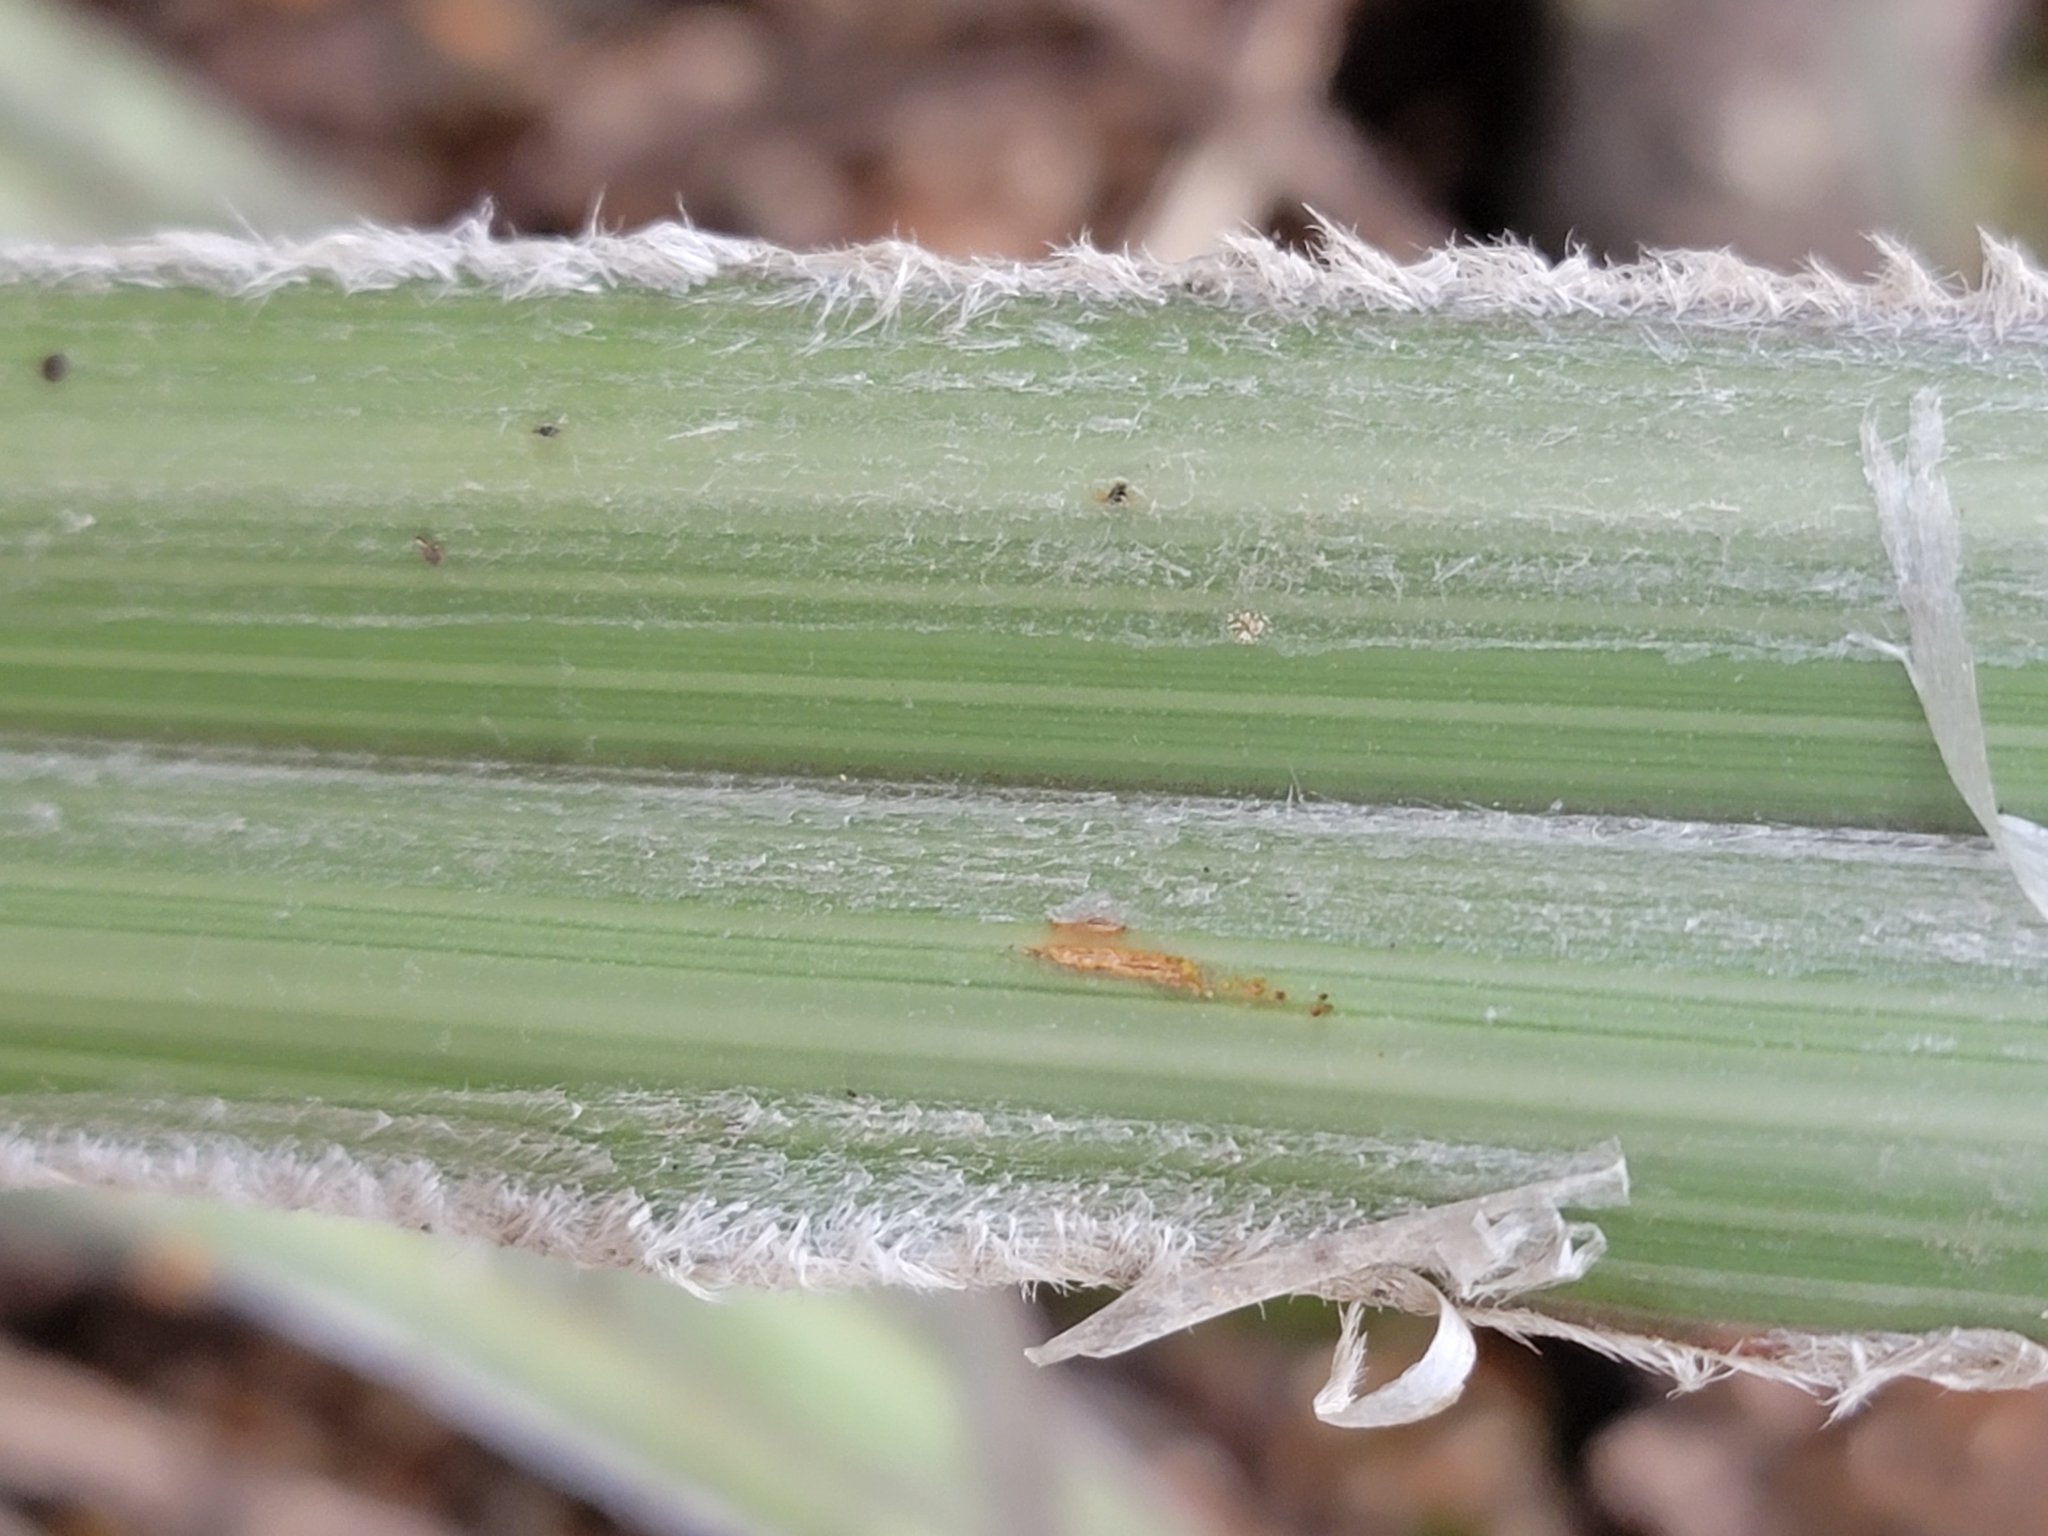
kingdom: Plantae
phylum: Tracheophyta
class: Liliopsida
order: Asparagales
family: Asteliaceae
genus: Astelia
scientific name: Astelia nervosa
